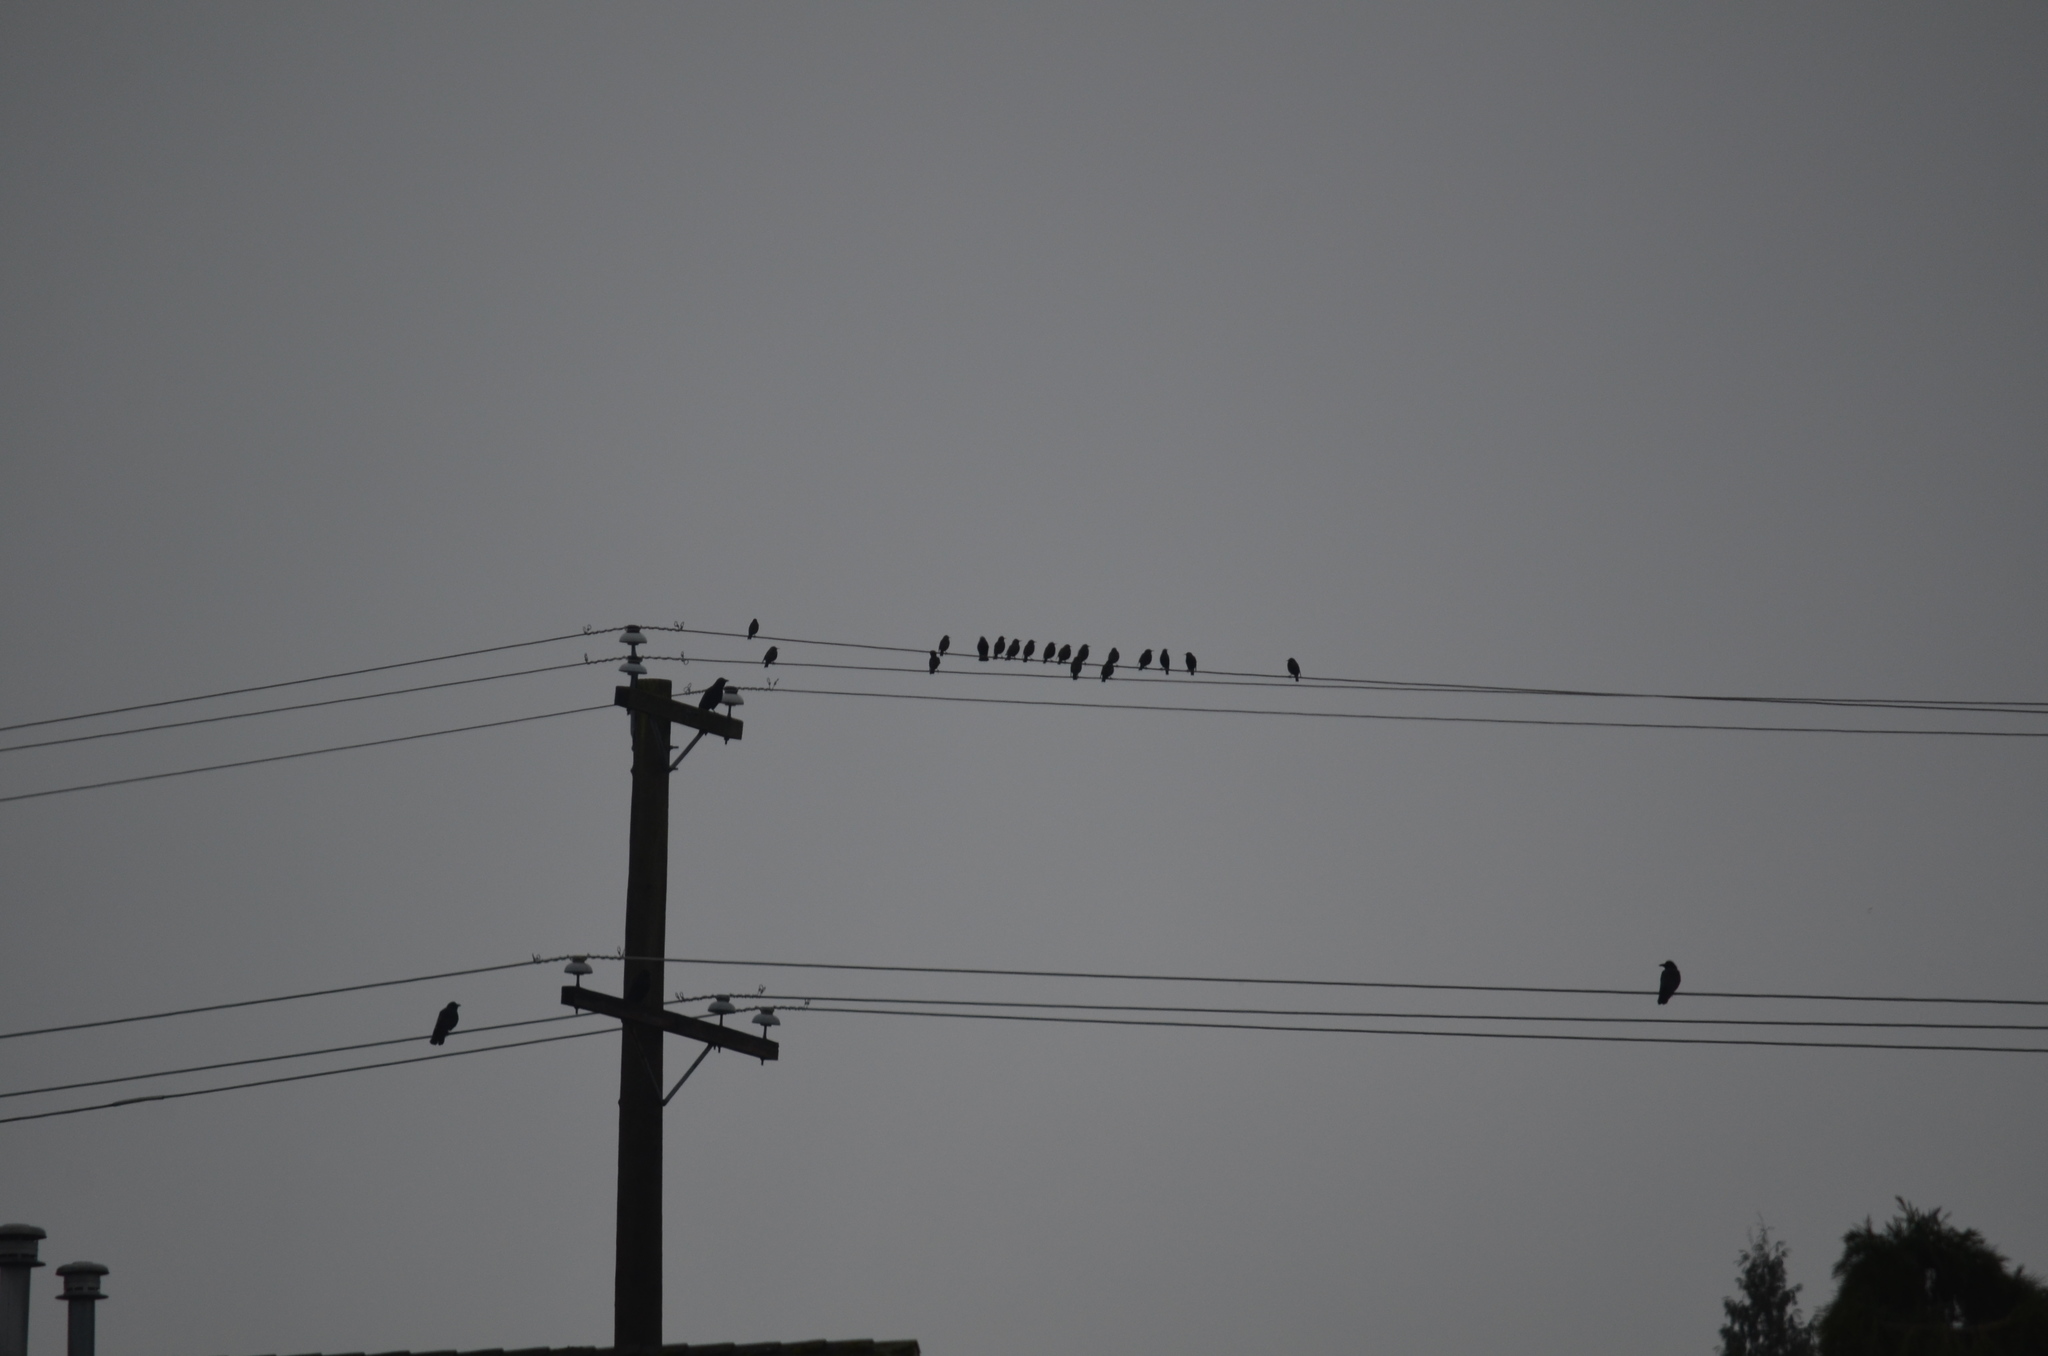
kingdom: Animalia
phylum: Chordata
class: Aves
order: Passeriformes
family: Sturnidae
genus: Sturnus
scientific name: Sturnus vulgaris
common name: Common starling
